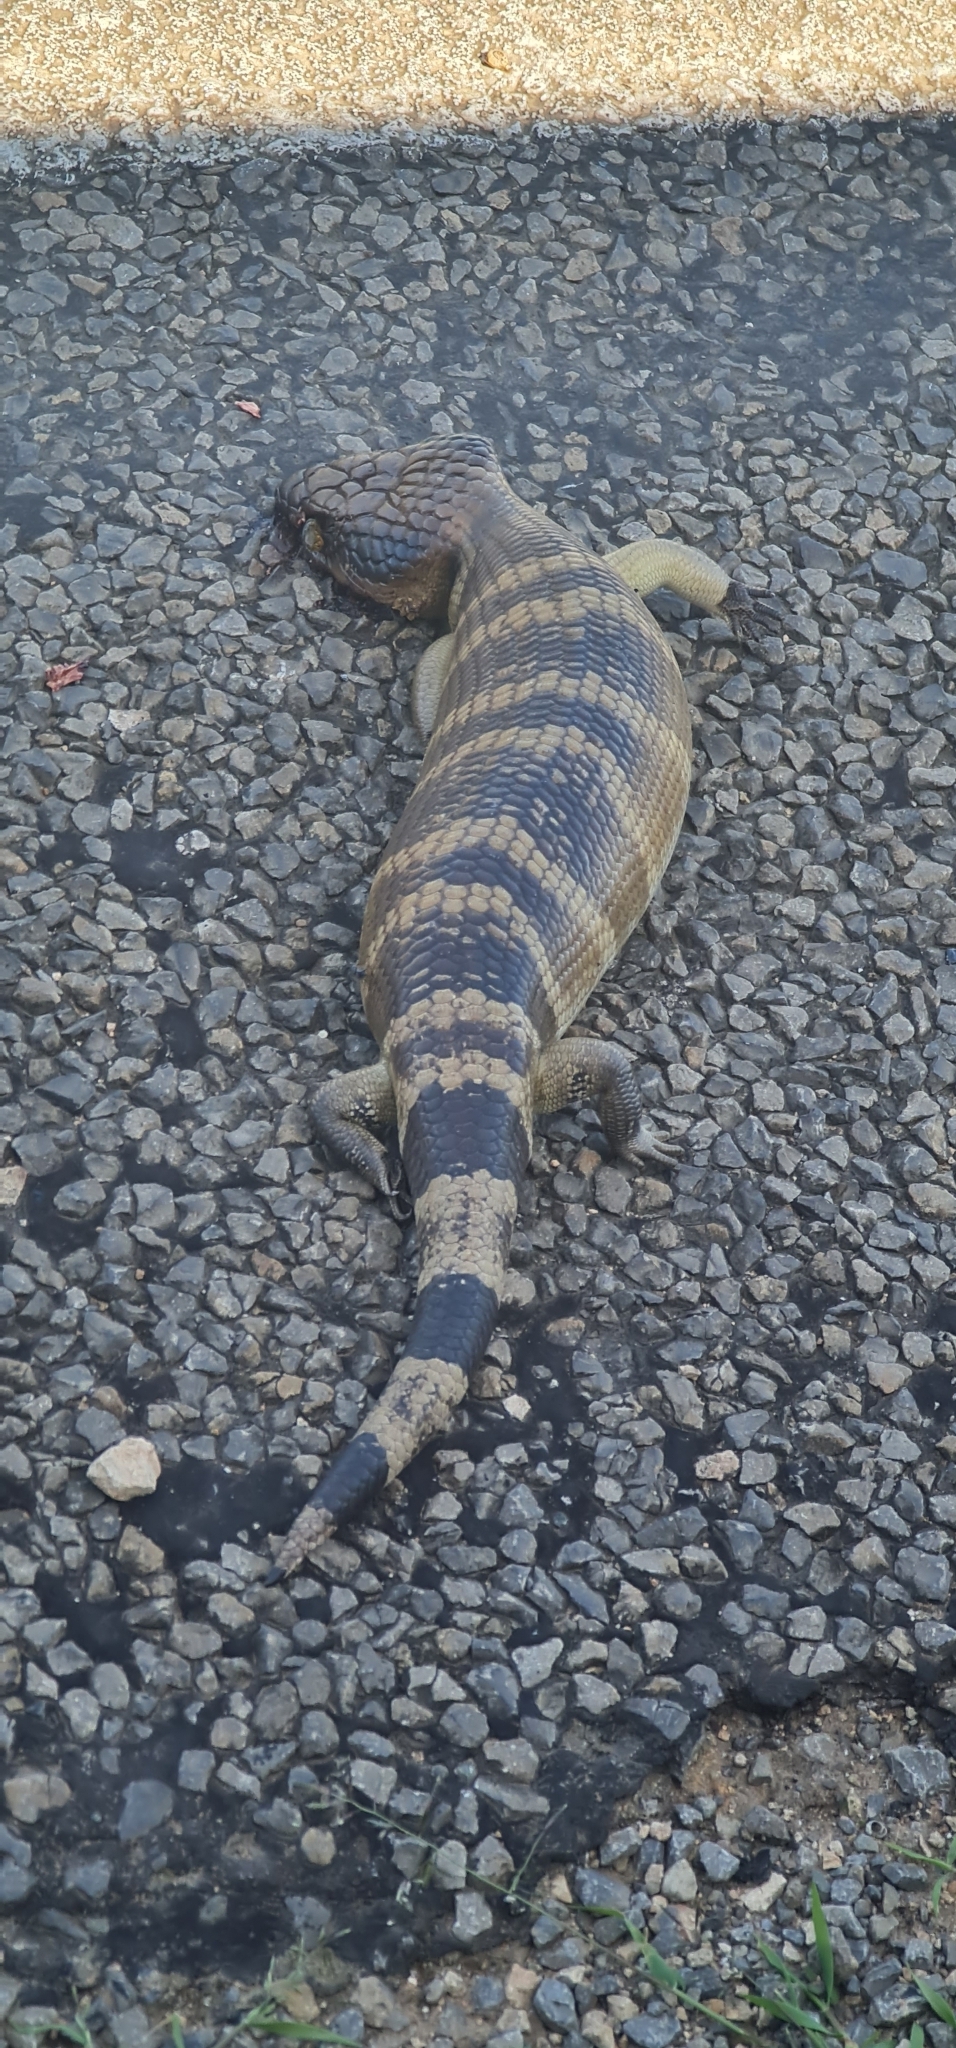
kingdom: Animalia
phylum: Chordata
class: Squamata
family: Scincidae
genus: Tiliqua
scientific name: Tiliqua occipitalis
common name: Western blue-tongued lizard
